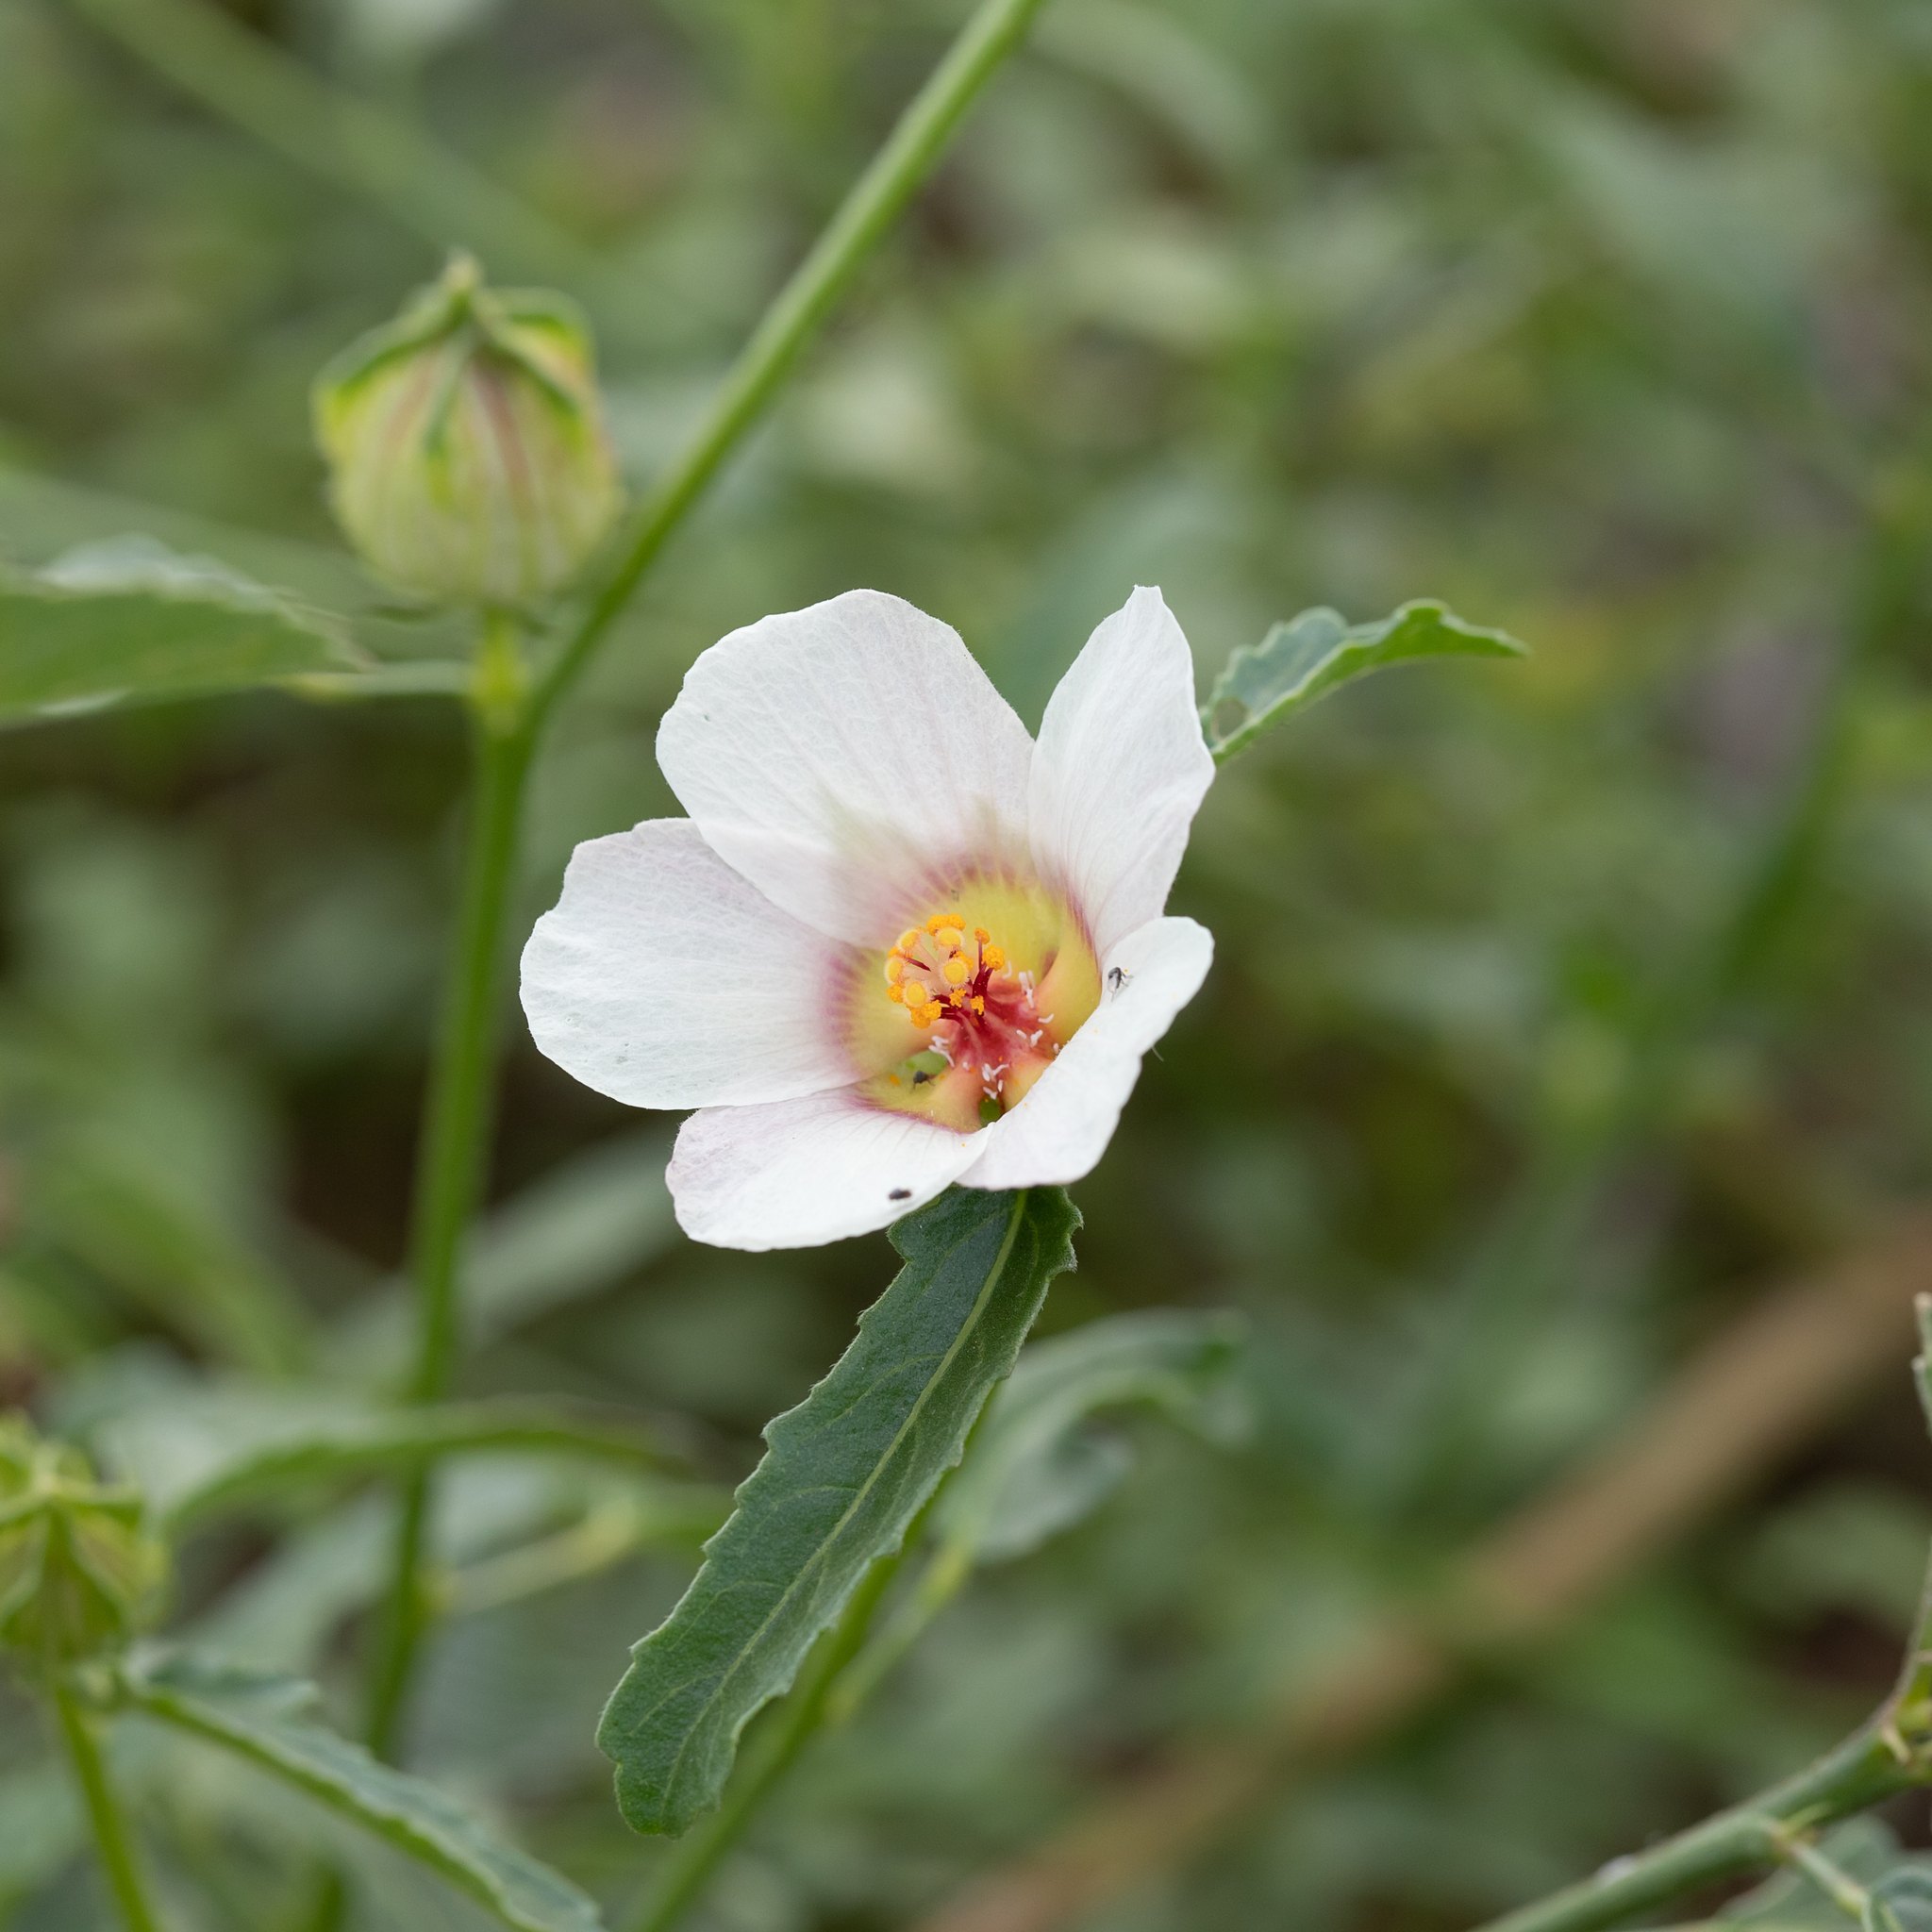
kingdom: Plantae
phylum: Tracheophyta
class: Magnoliopsida
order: Malvales
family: Malvaceae
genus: Hibiscus
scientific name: Hibiscus verdcourtii
